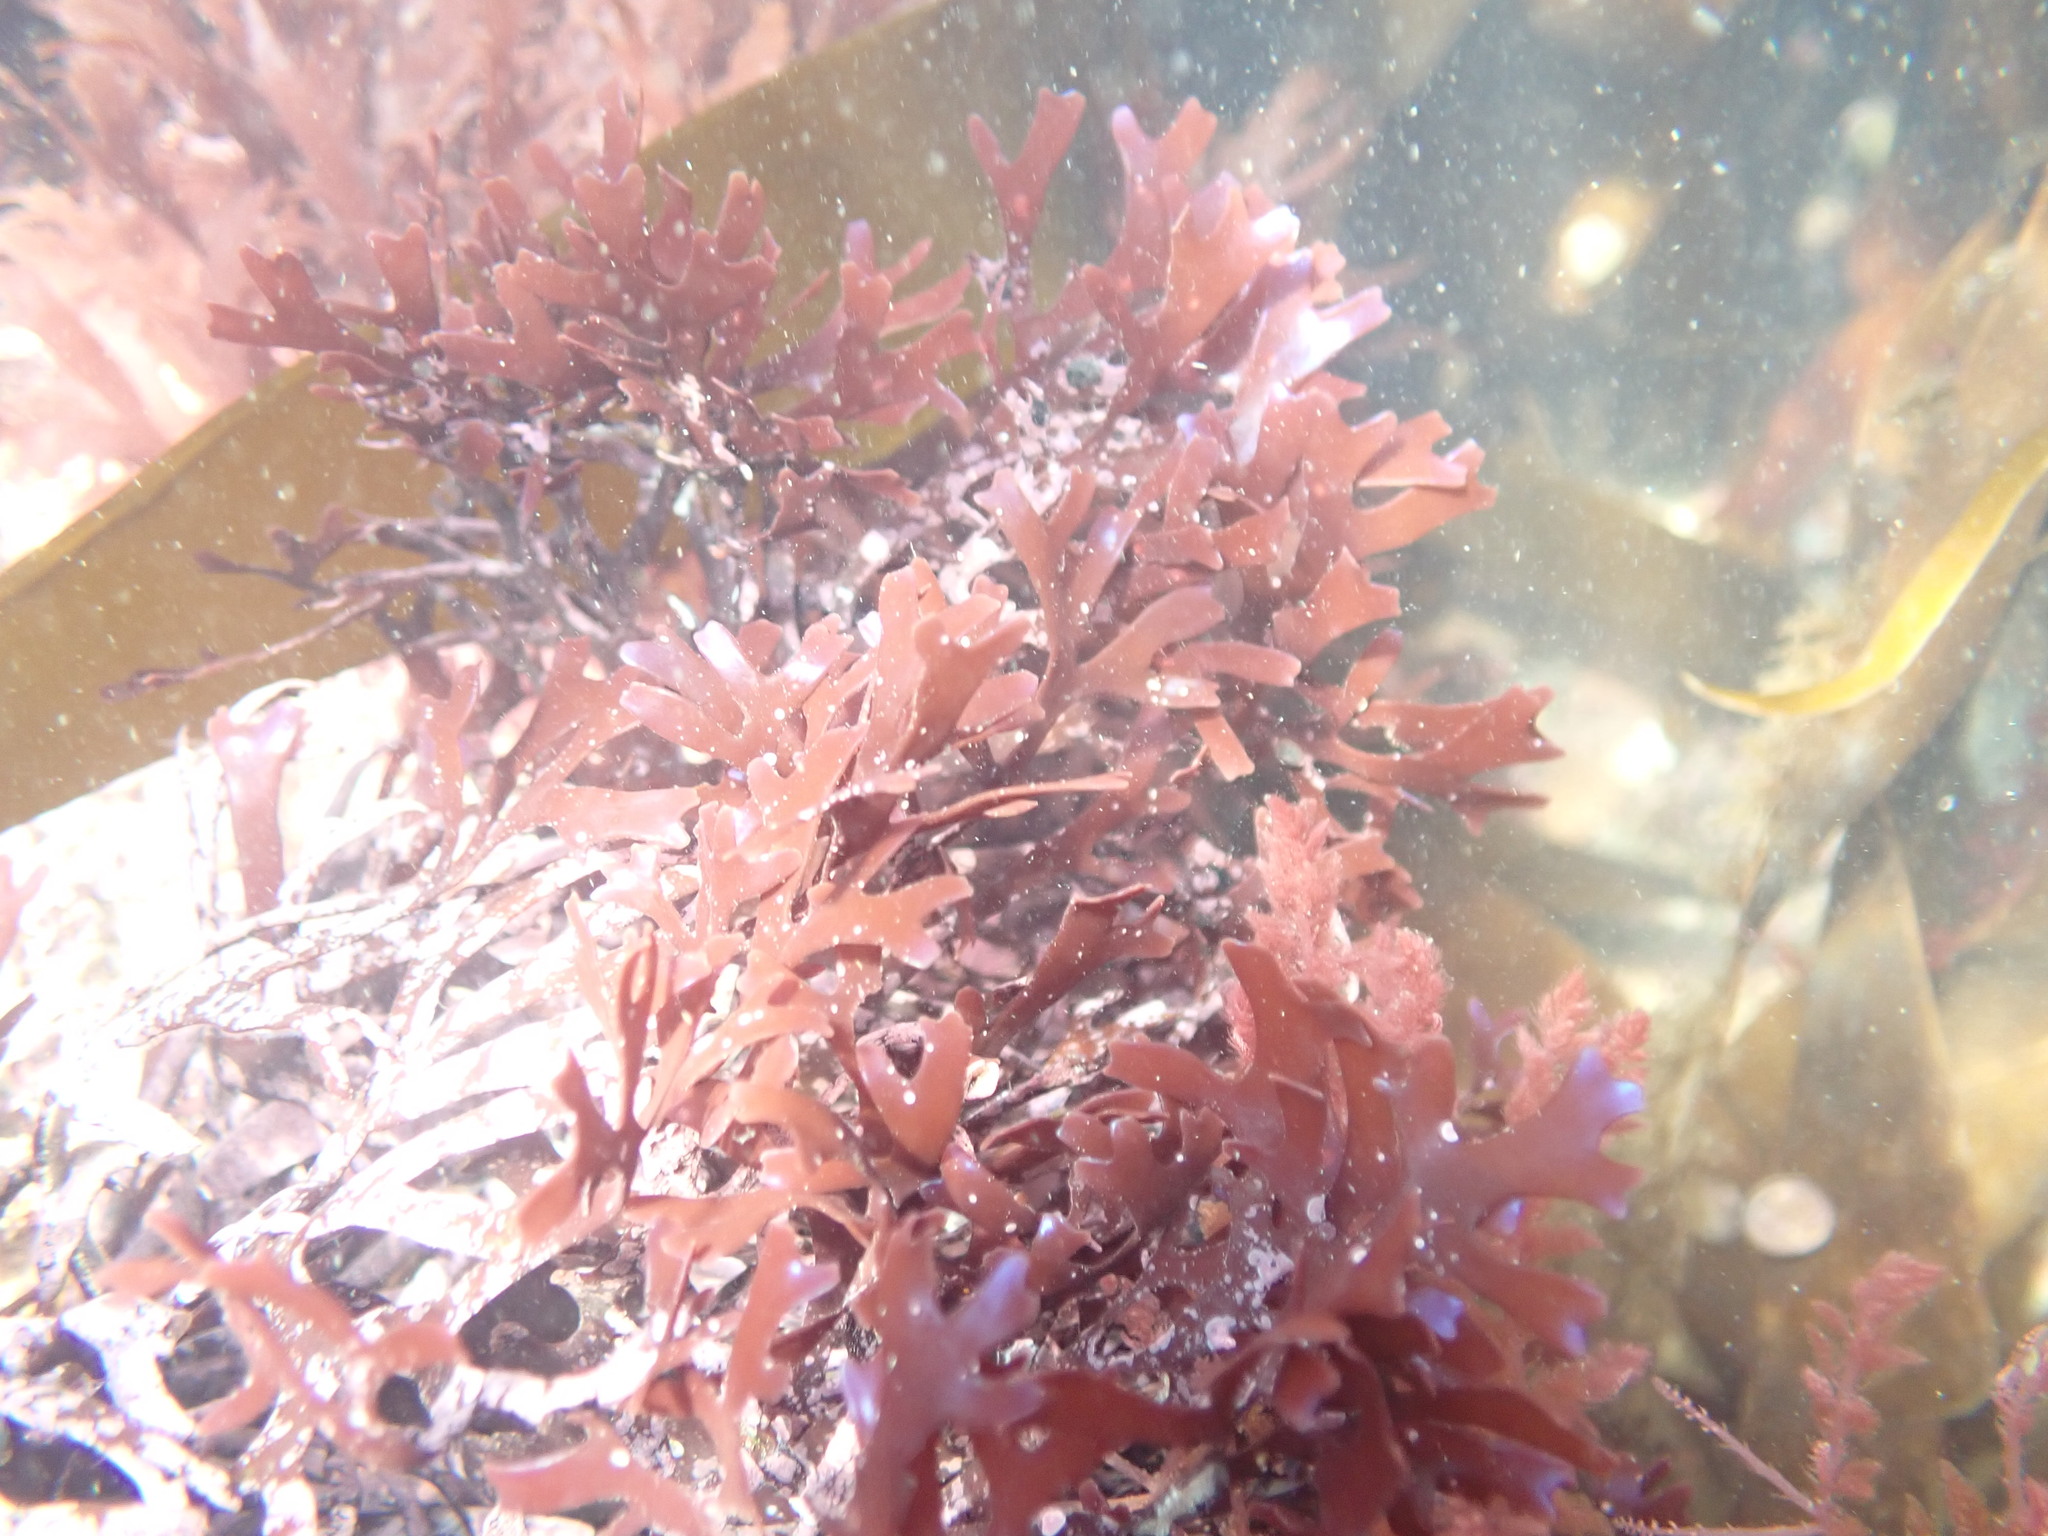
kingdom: Plantae
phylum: Rhodophyta
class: Florideophyceae
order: Gigartinales
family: Gigartinaceae
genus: Chondrus
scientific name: Chondrus crispus
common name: Carrageen
